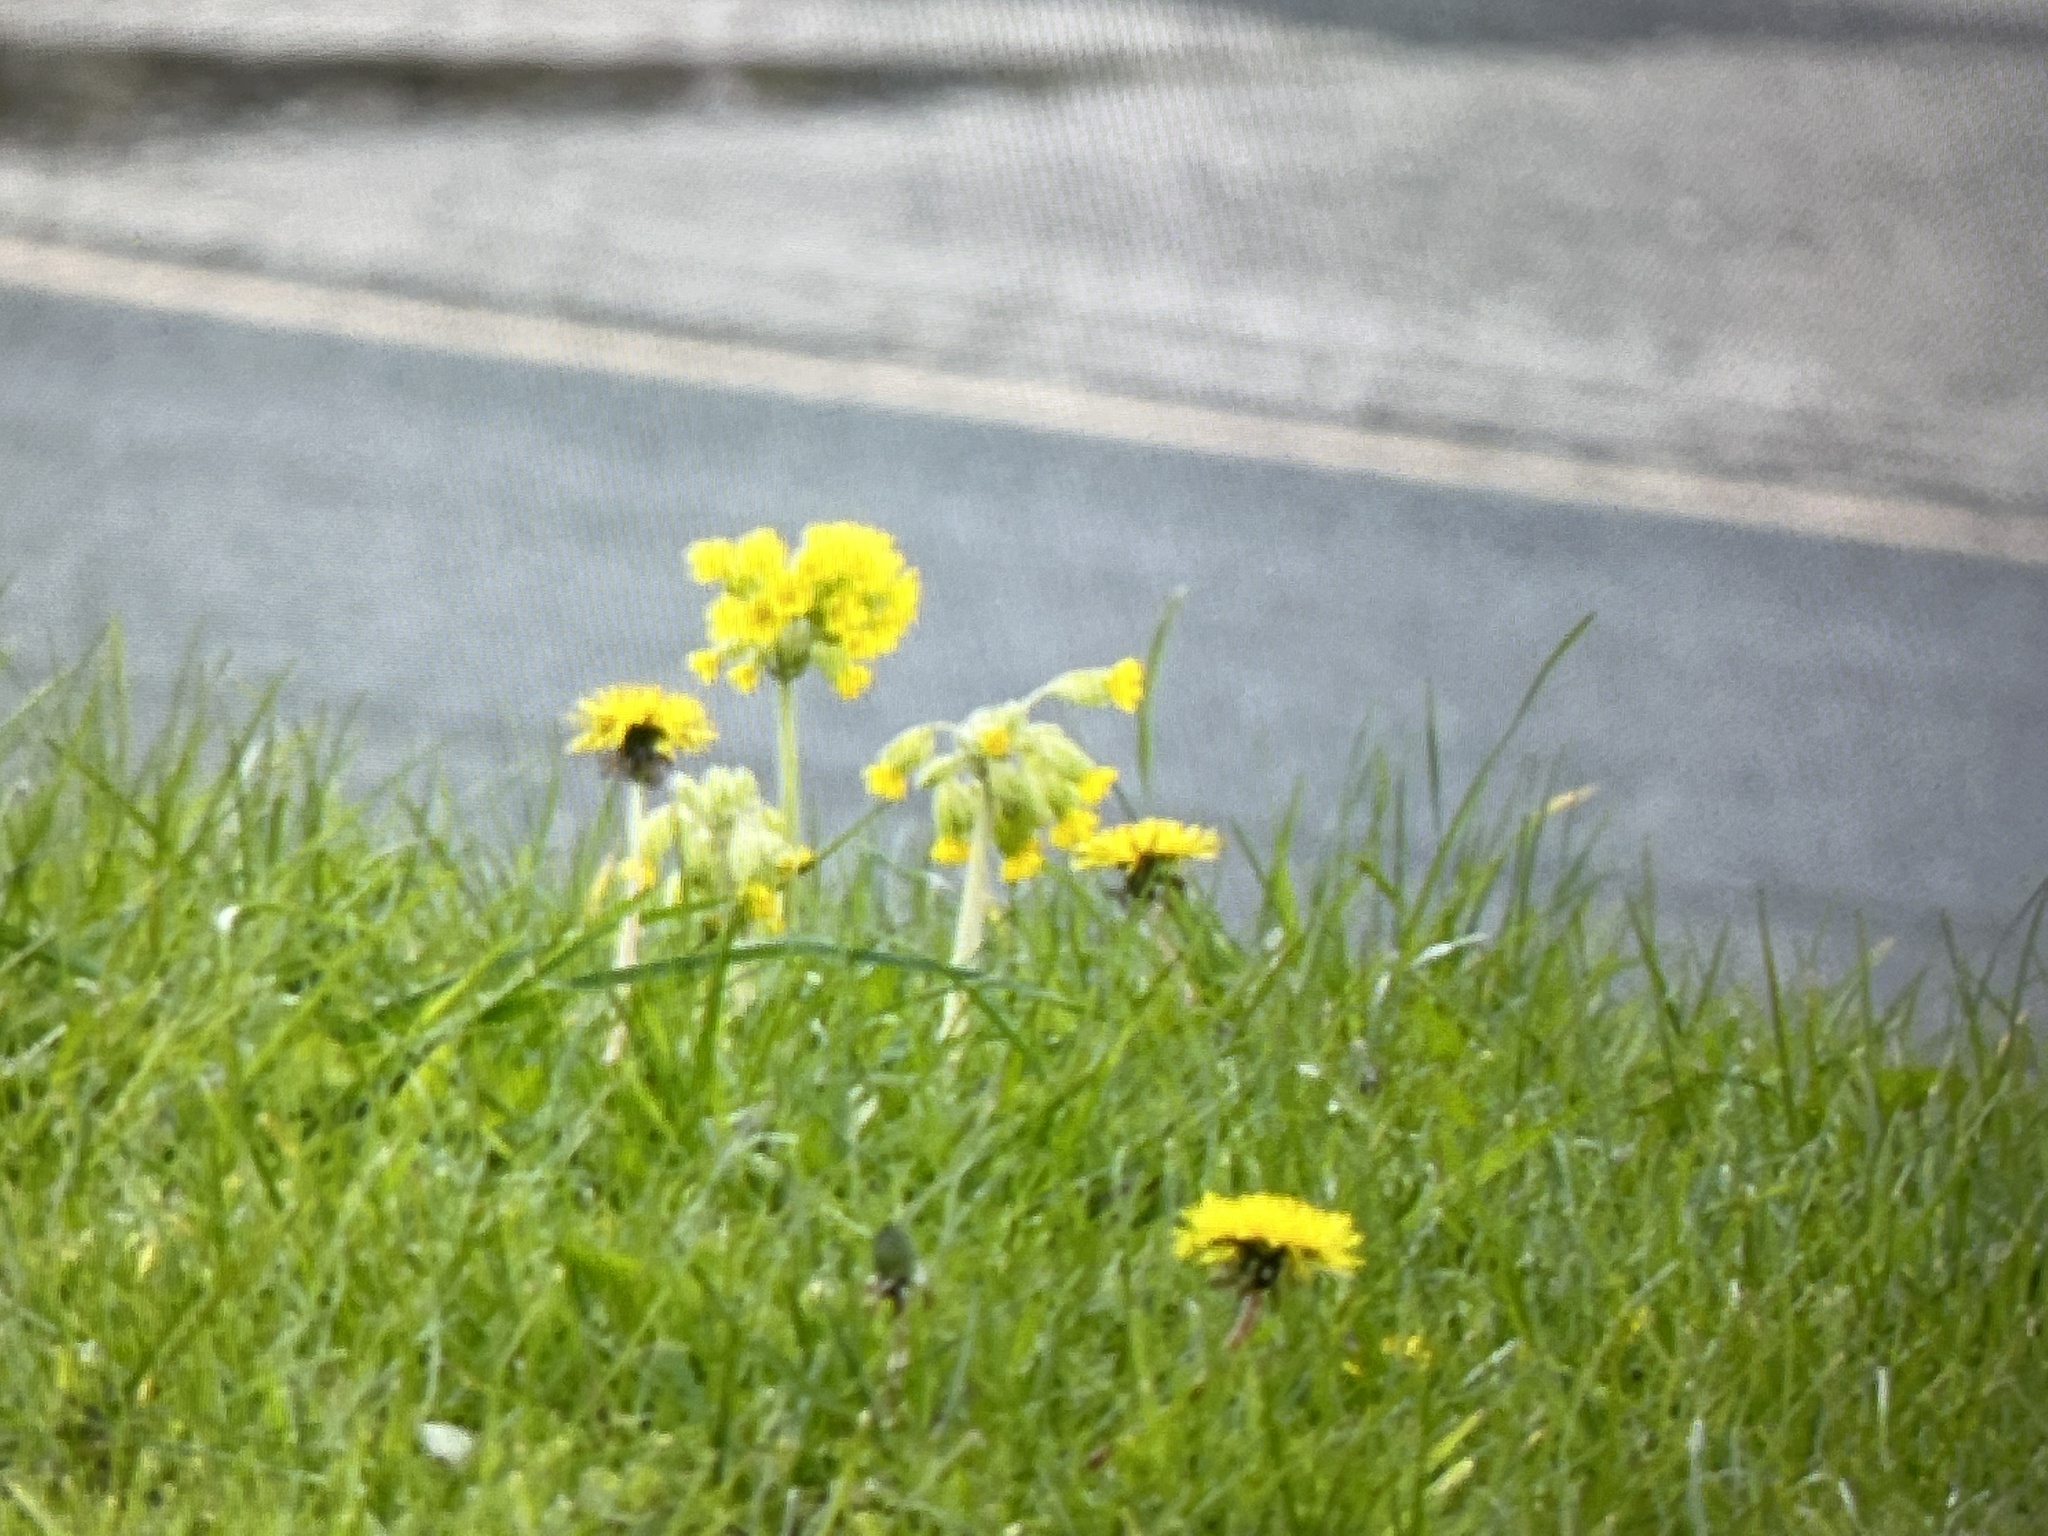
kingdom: Plantae
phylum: Tracheophyta
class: Magnoliopsida
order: Ericales
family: Primulaceae
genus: Primula
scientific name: Primula veris
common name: Cowslip
